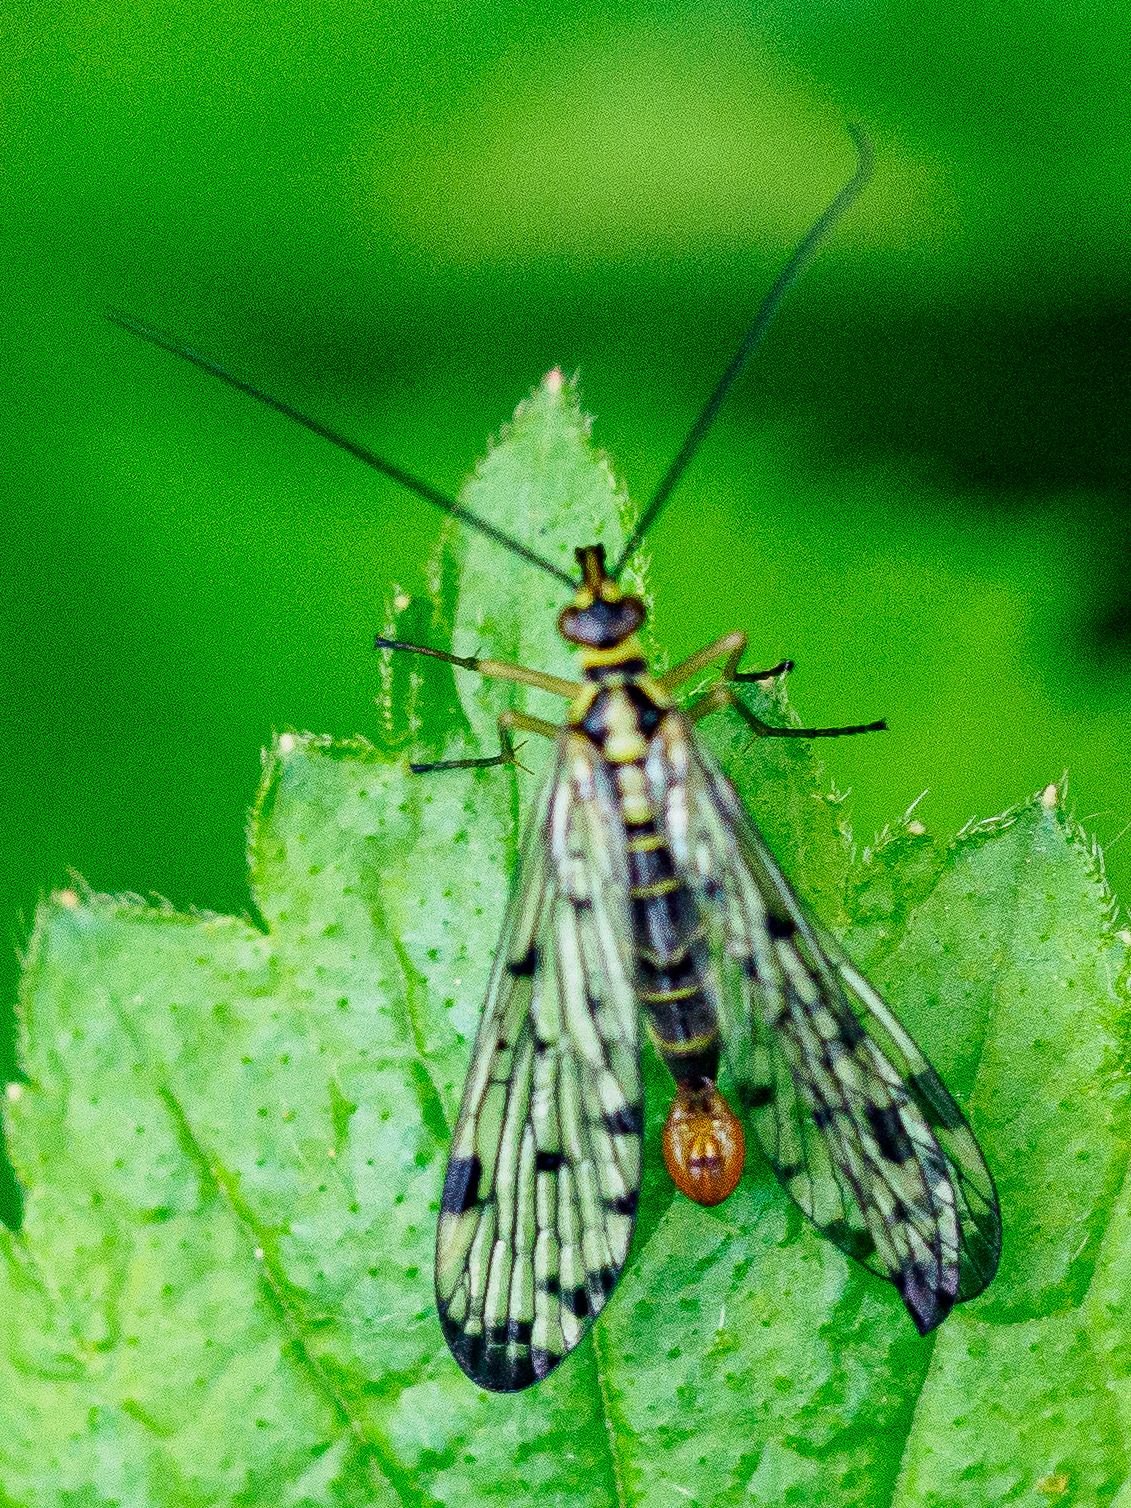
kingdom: Animalia
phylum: Arthropoda
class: Insecta
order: Mecoptera
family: Panorpidae
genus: Panorpa
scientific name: Panorpa germanica
